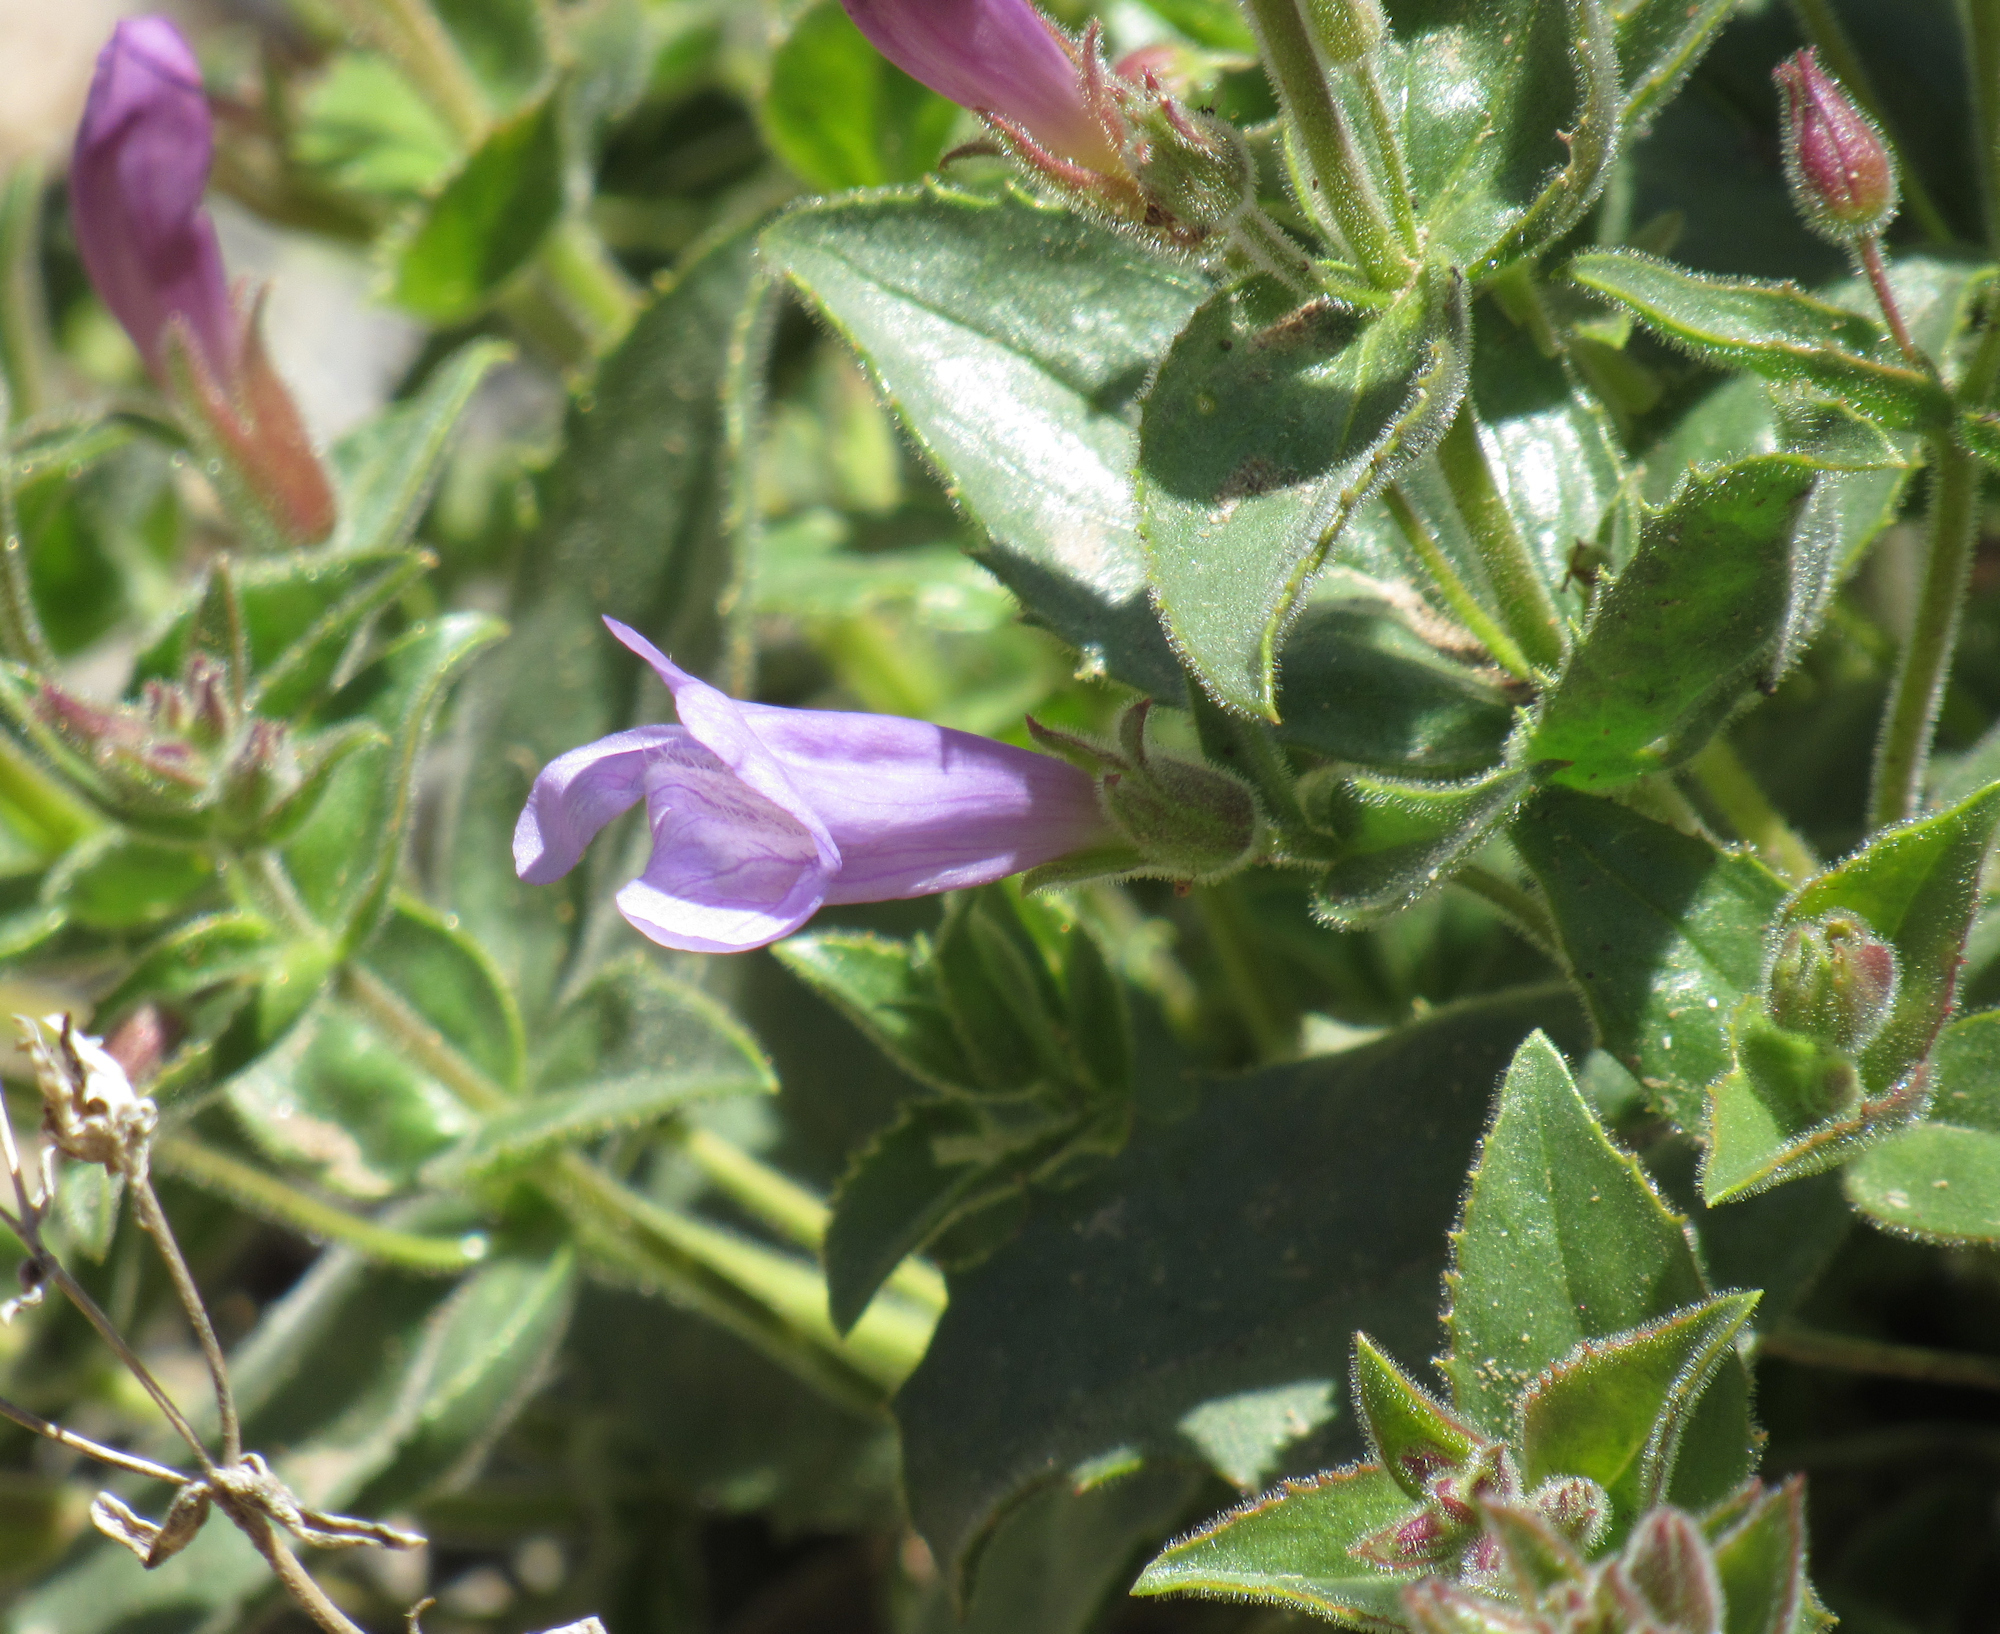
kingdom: Plantae
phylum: Tracheophyta
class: Magnoliopsida
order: Lamiales
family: Plantaginaceae
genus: Penstemon
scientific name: Penstemon montanus
